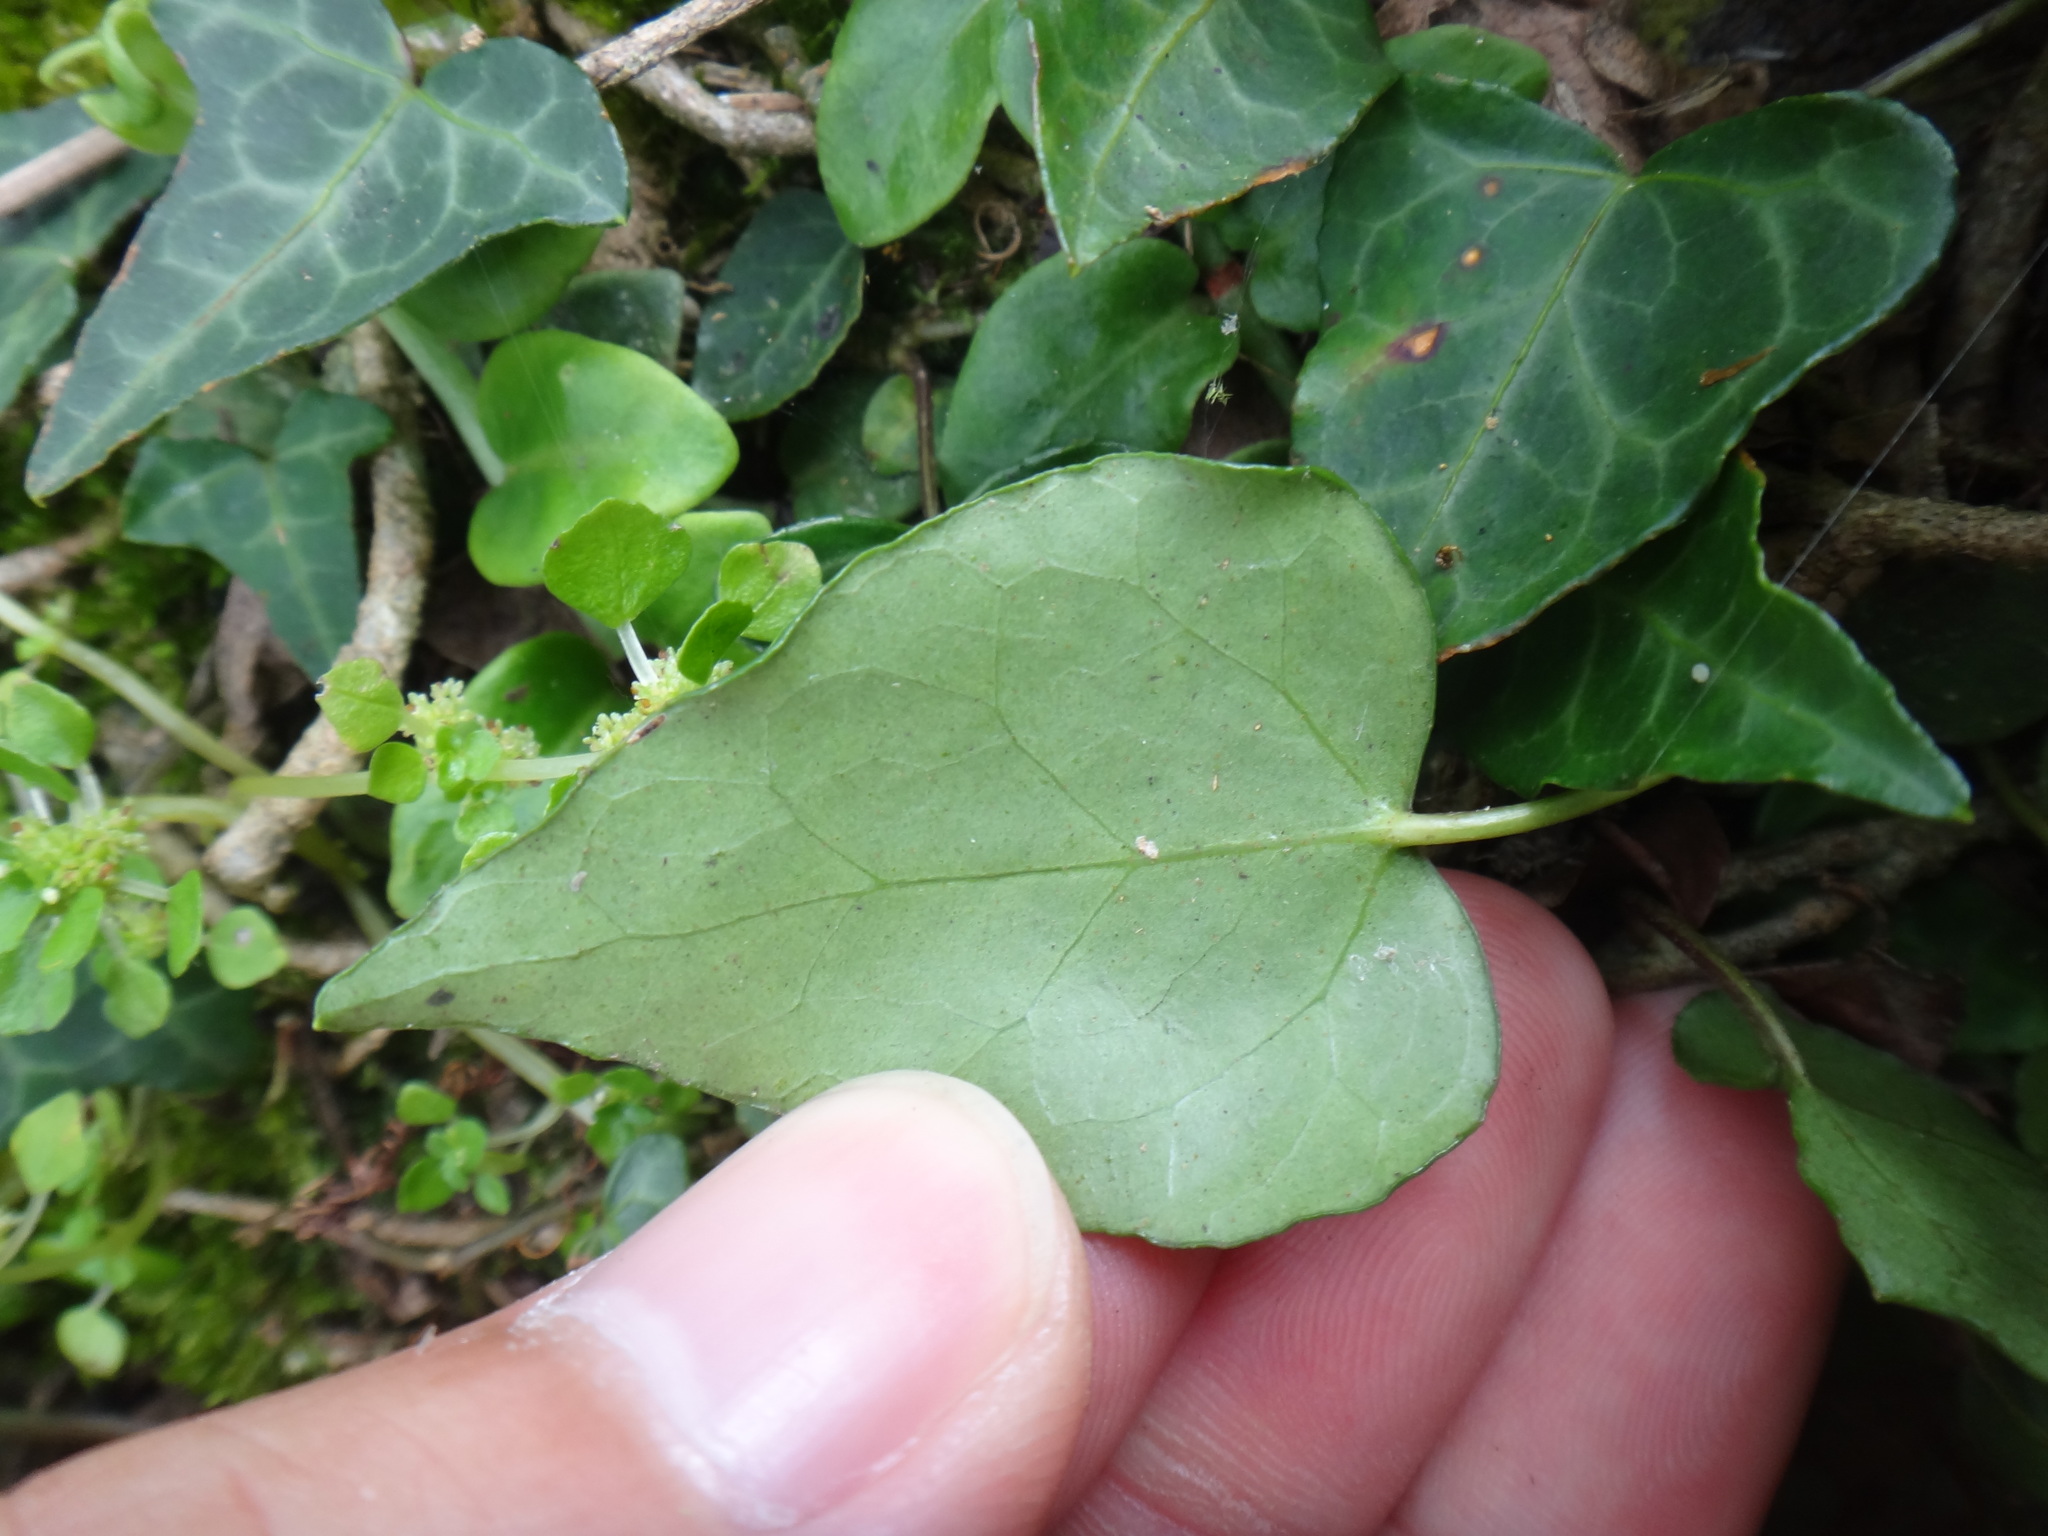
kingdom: Plantae
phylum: Tracheophyta
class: Magnoliopsida
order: Apiales
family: Araliaceae
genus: Hedera
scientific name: Hedera rhombea
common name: Japanese ivy
